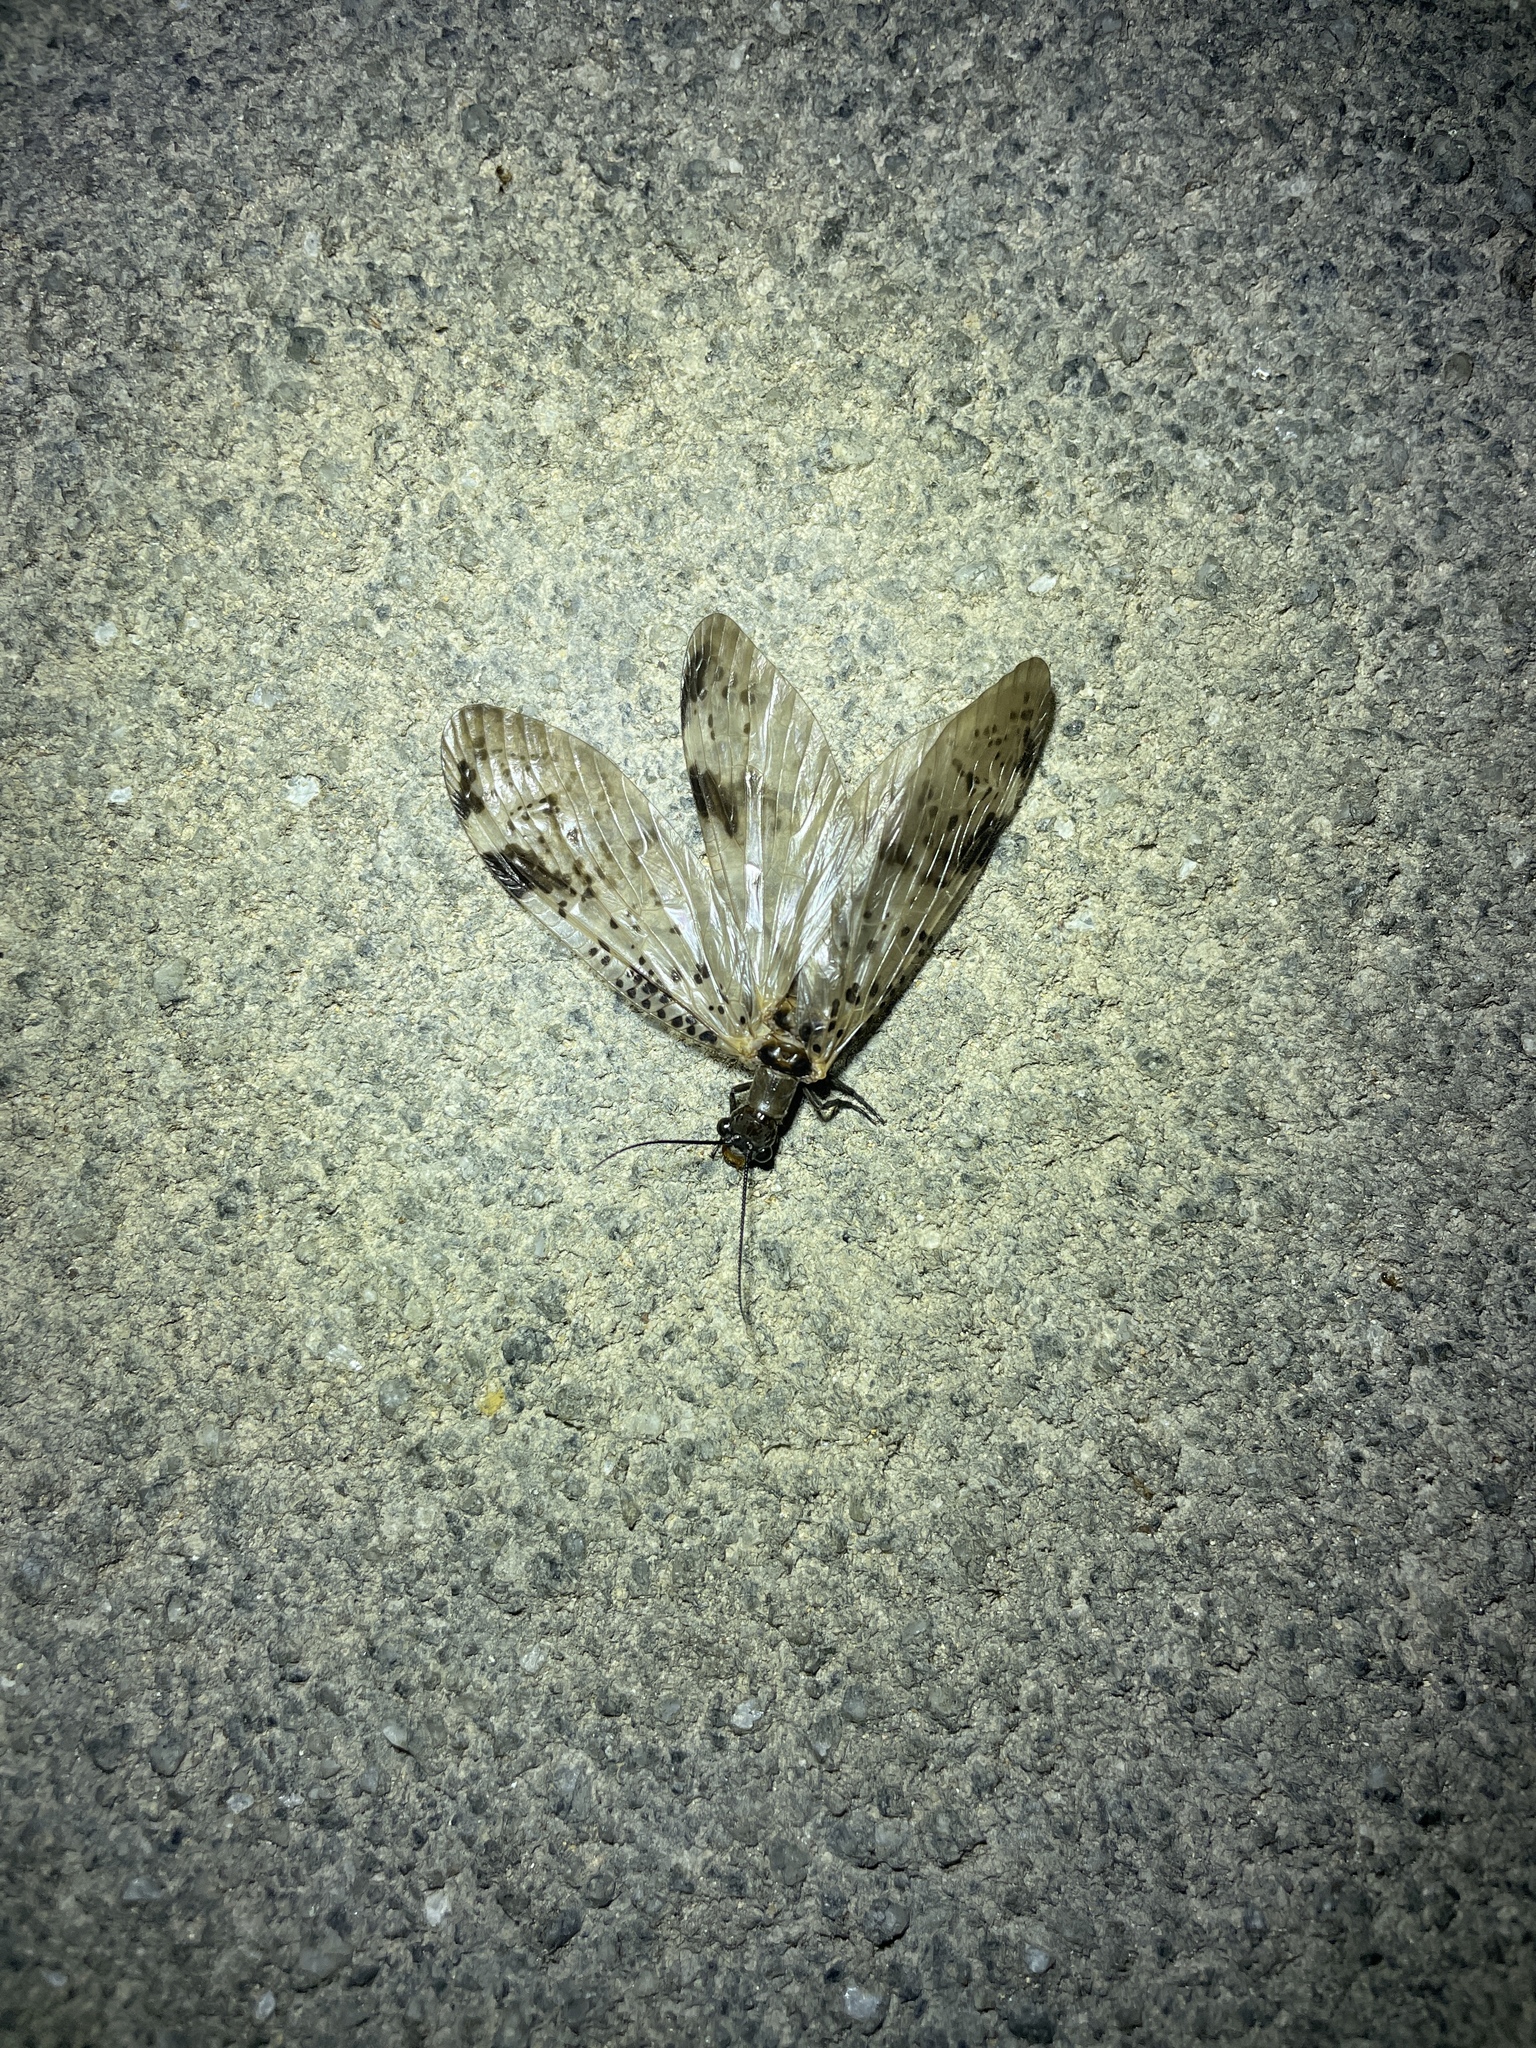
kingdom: Animalia
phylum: Arthropoda
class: Insecta
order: Megaloptera
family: Corydalidae
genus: Neochauliodes
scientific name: Neochauliodes bowringi
